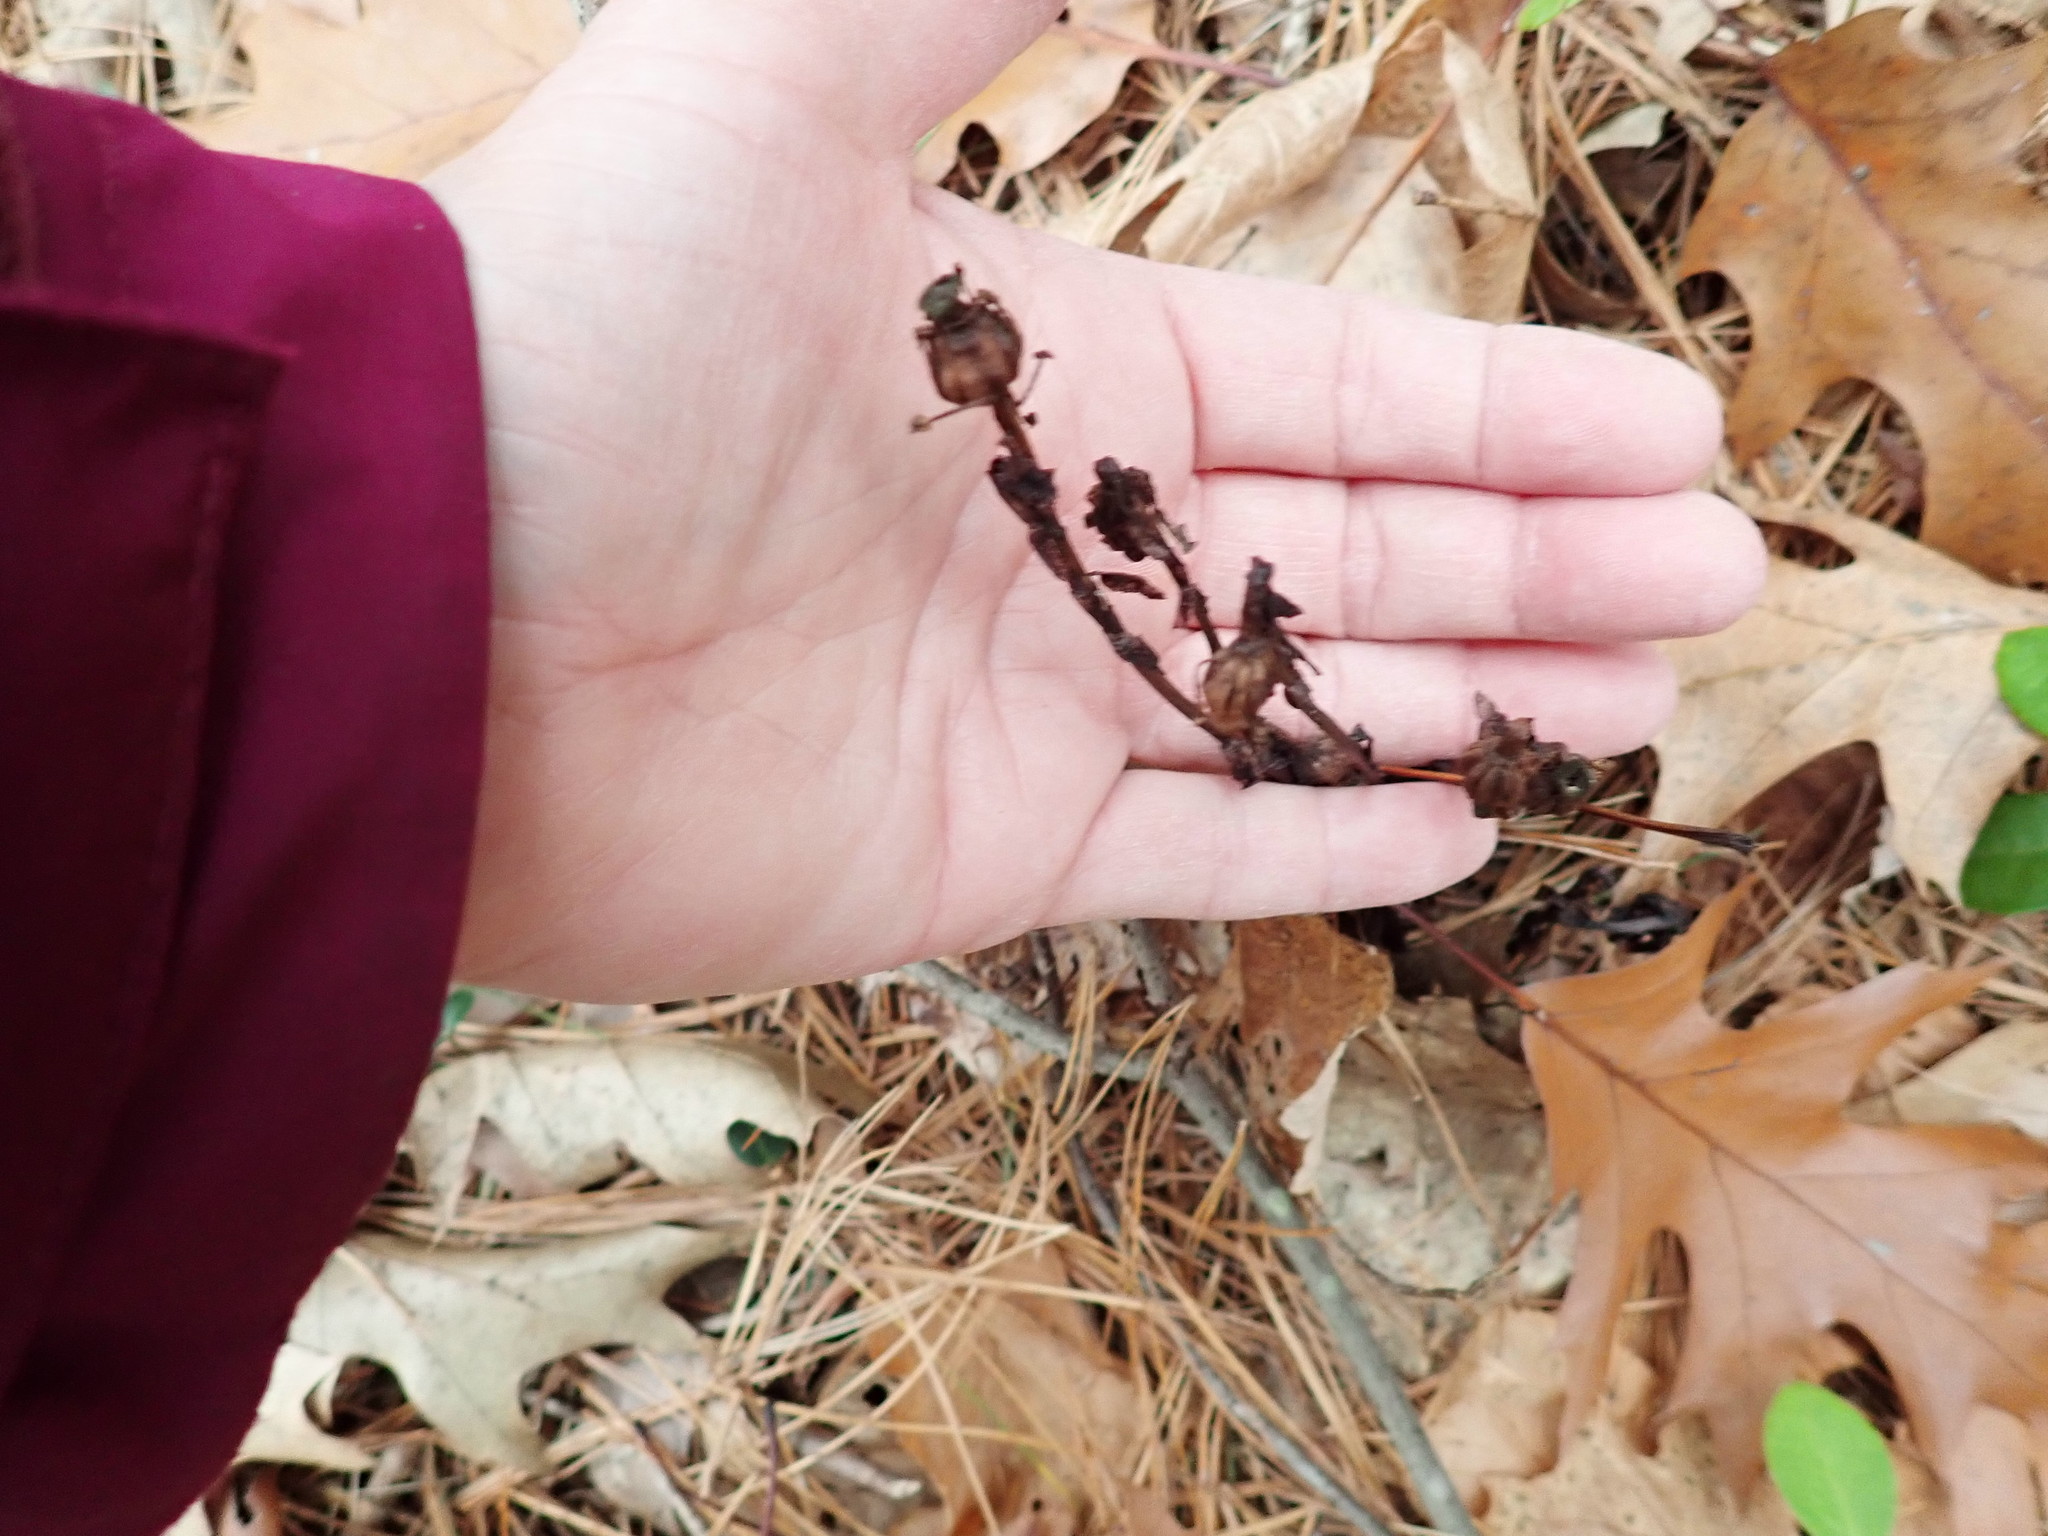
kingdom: Plantae
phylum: Tracheophyta
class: Magnoliopsida
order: Ericales
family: Ericaceae
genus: Monotropa
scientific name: Monotropa uniflora
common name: Convulsion root
